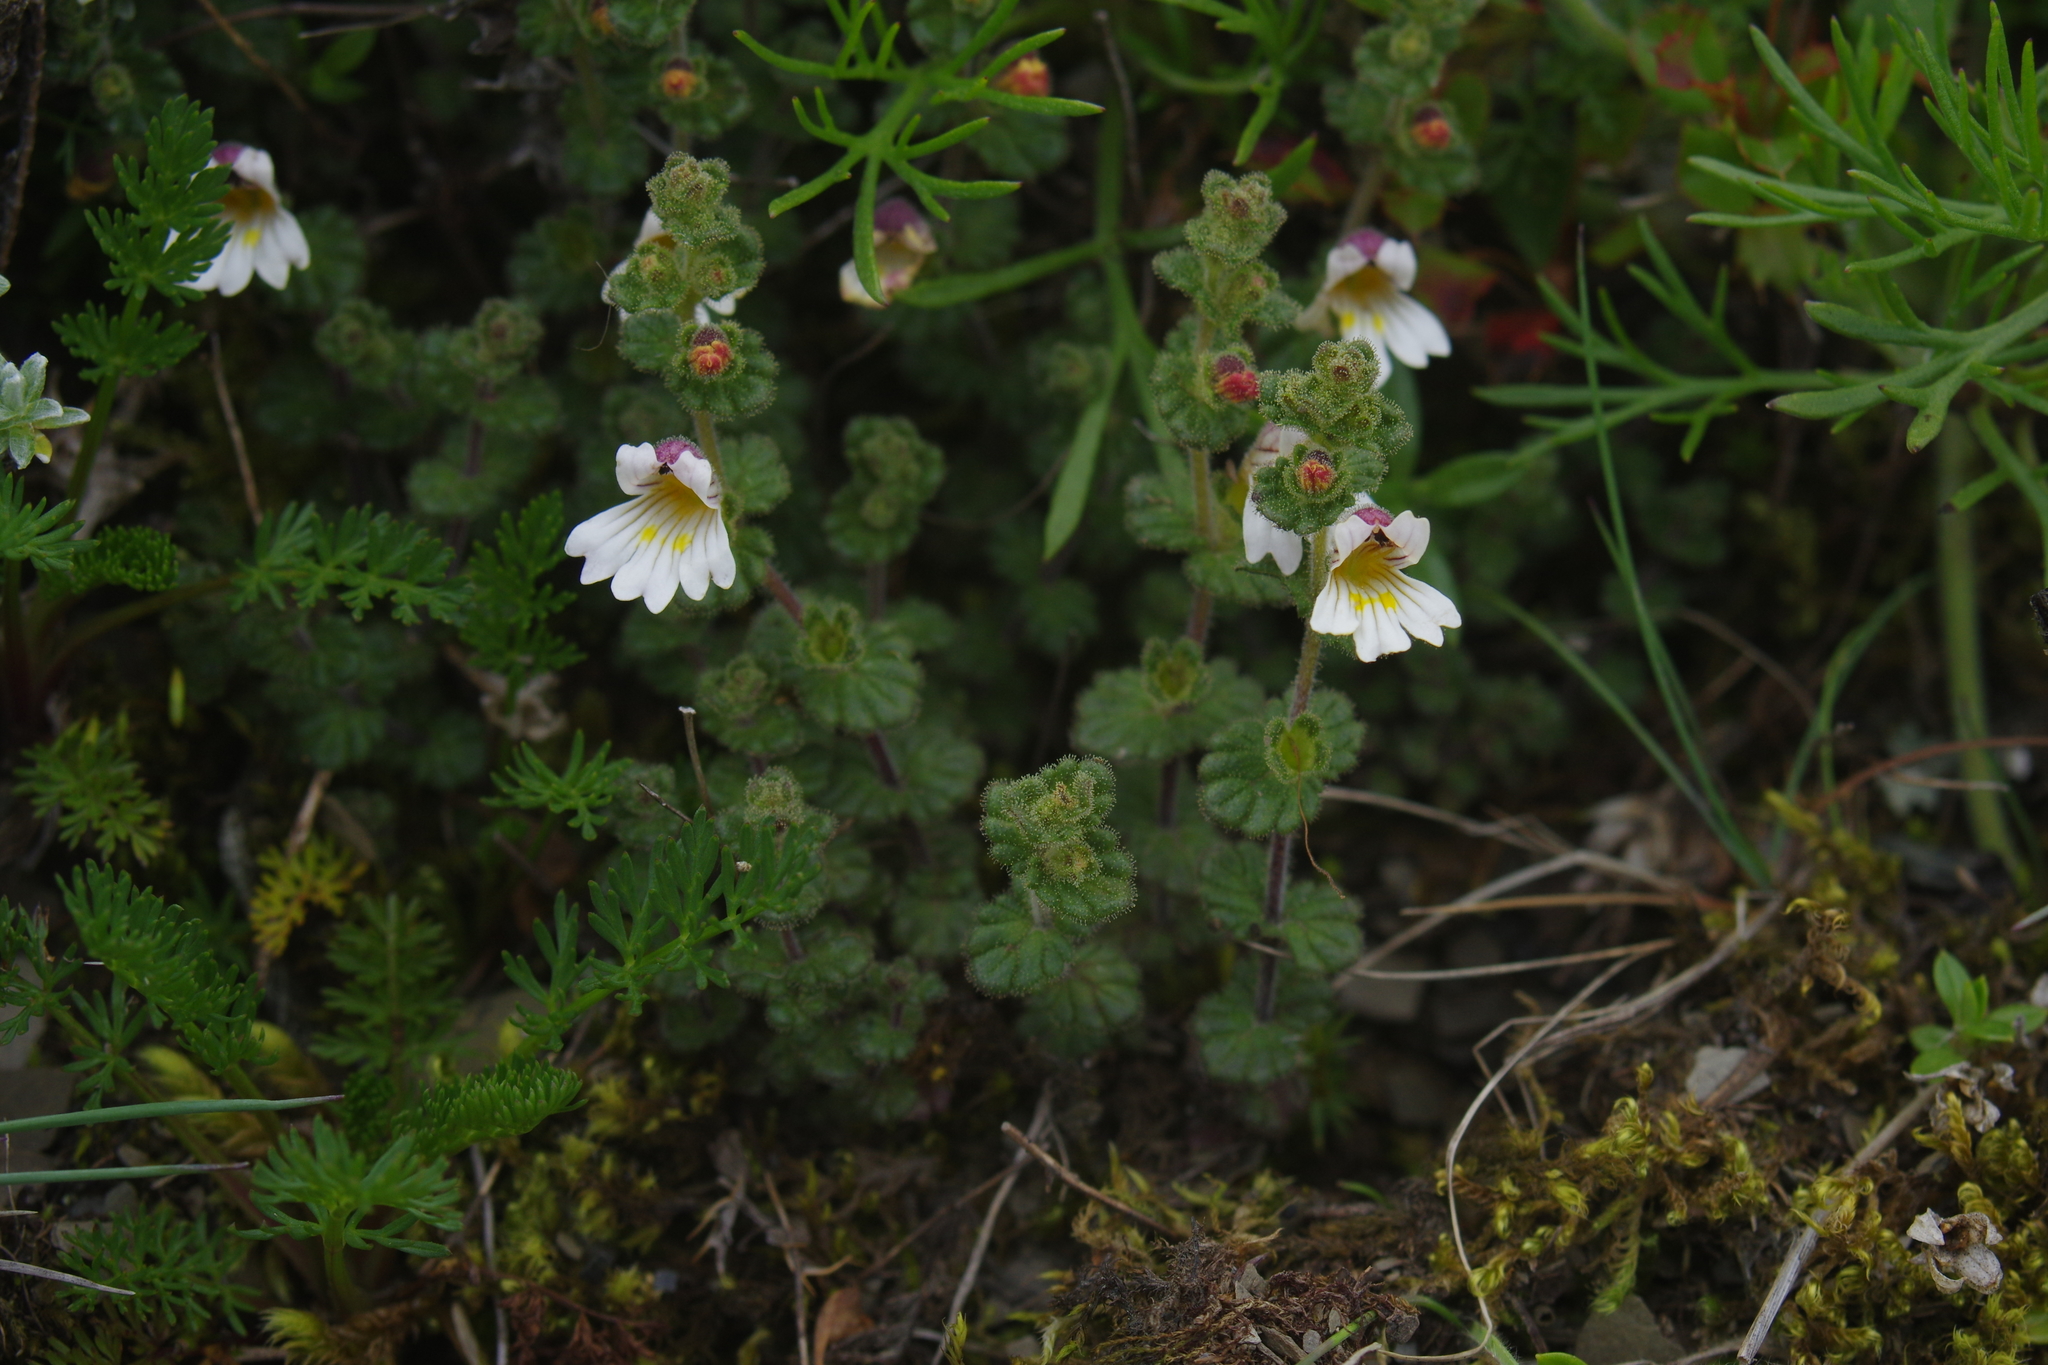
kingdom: Plantae
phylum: Tracheophyta
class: Magnoliopsida
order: Lamiales
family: Orobanchaceae
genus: Euphrasia
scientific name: Euphrasia transmorrisonensis
